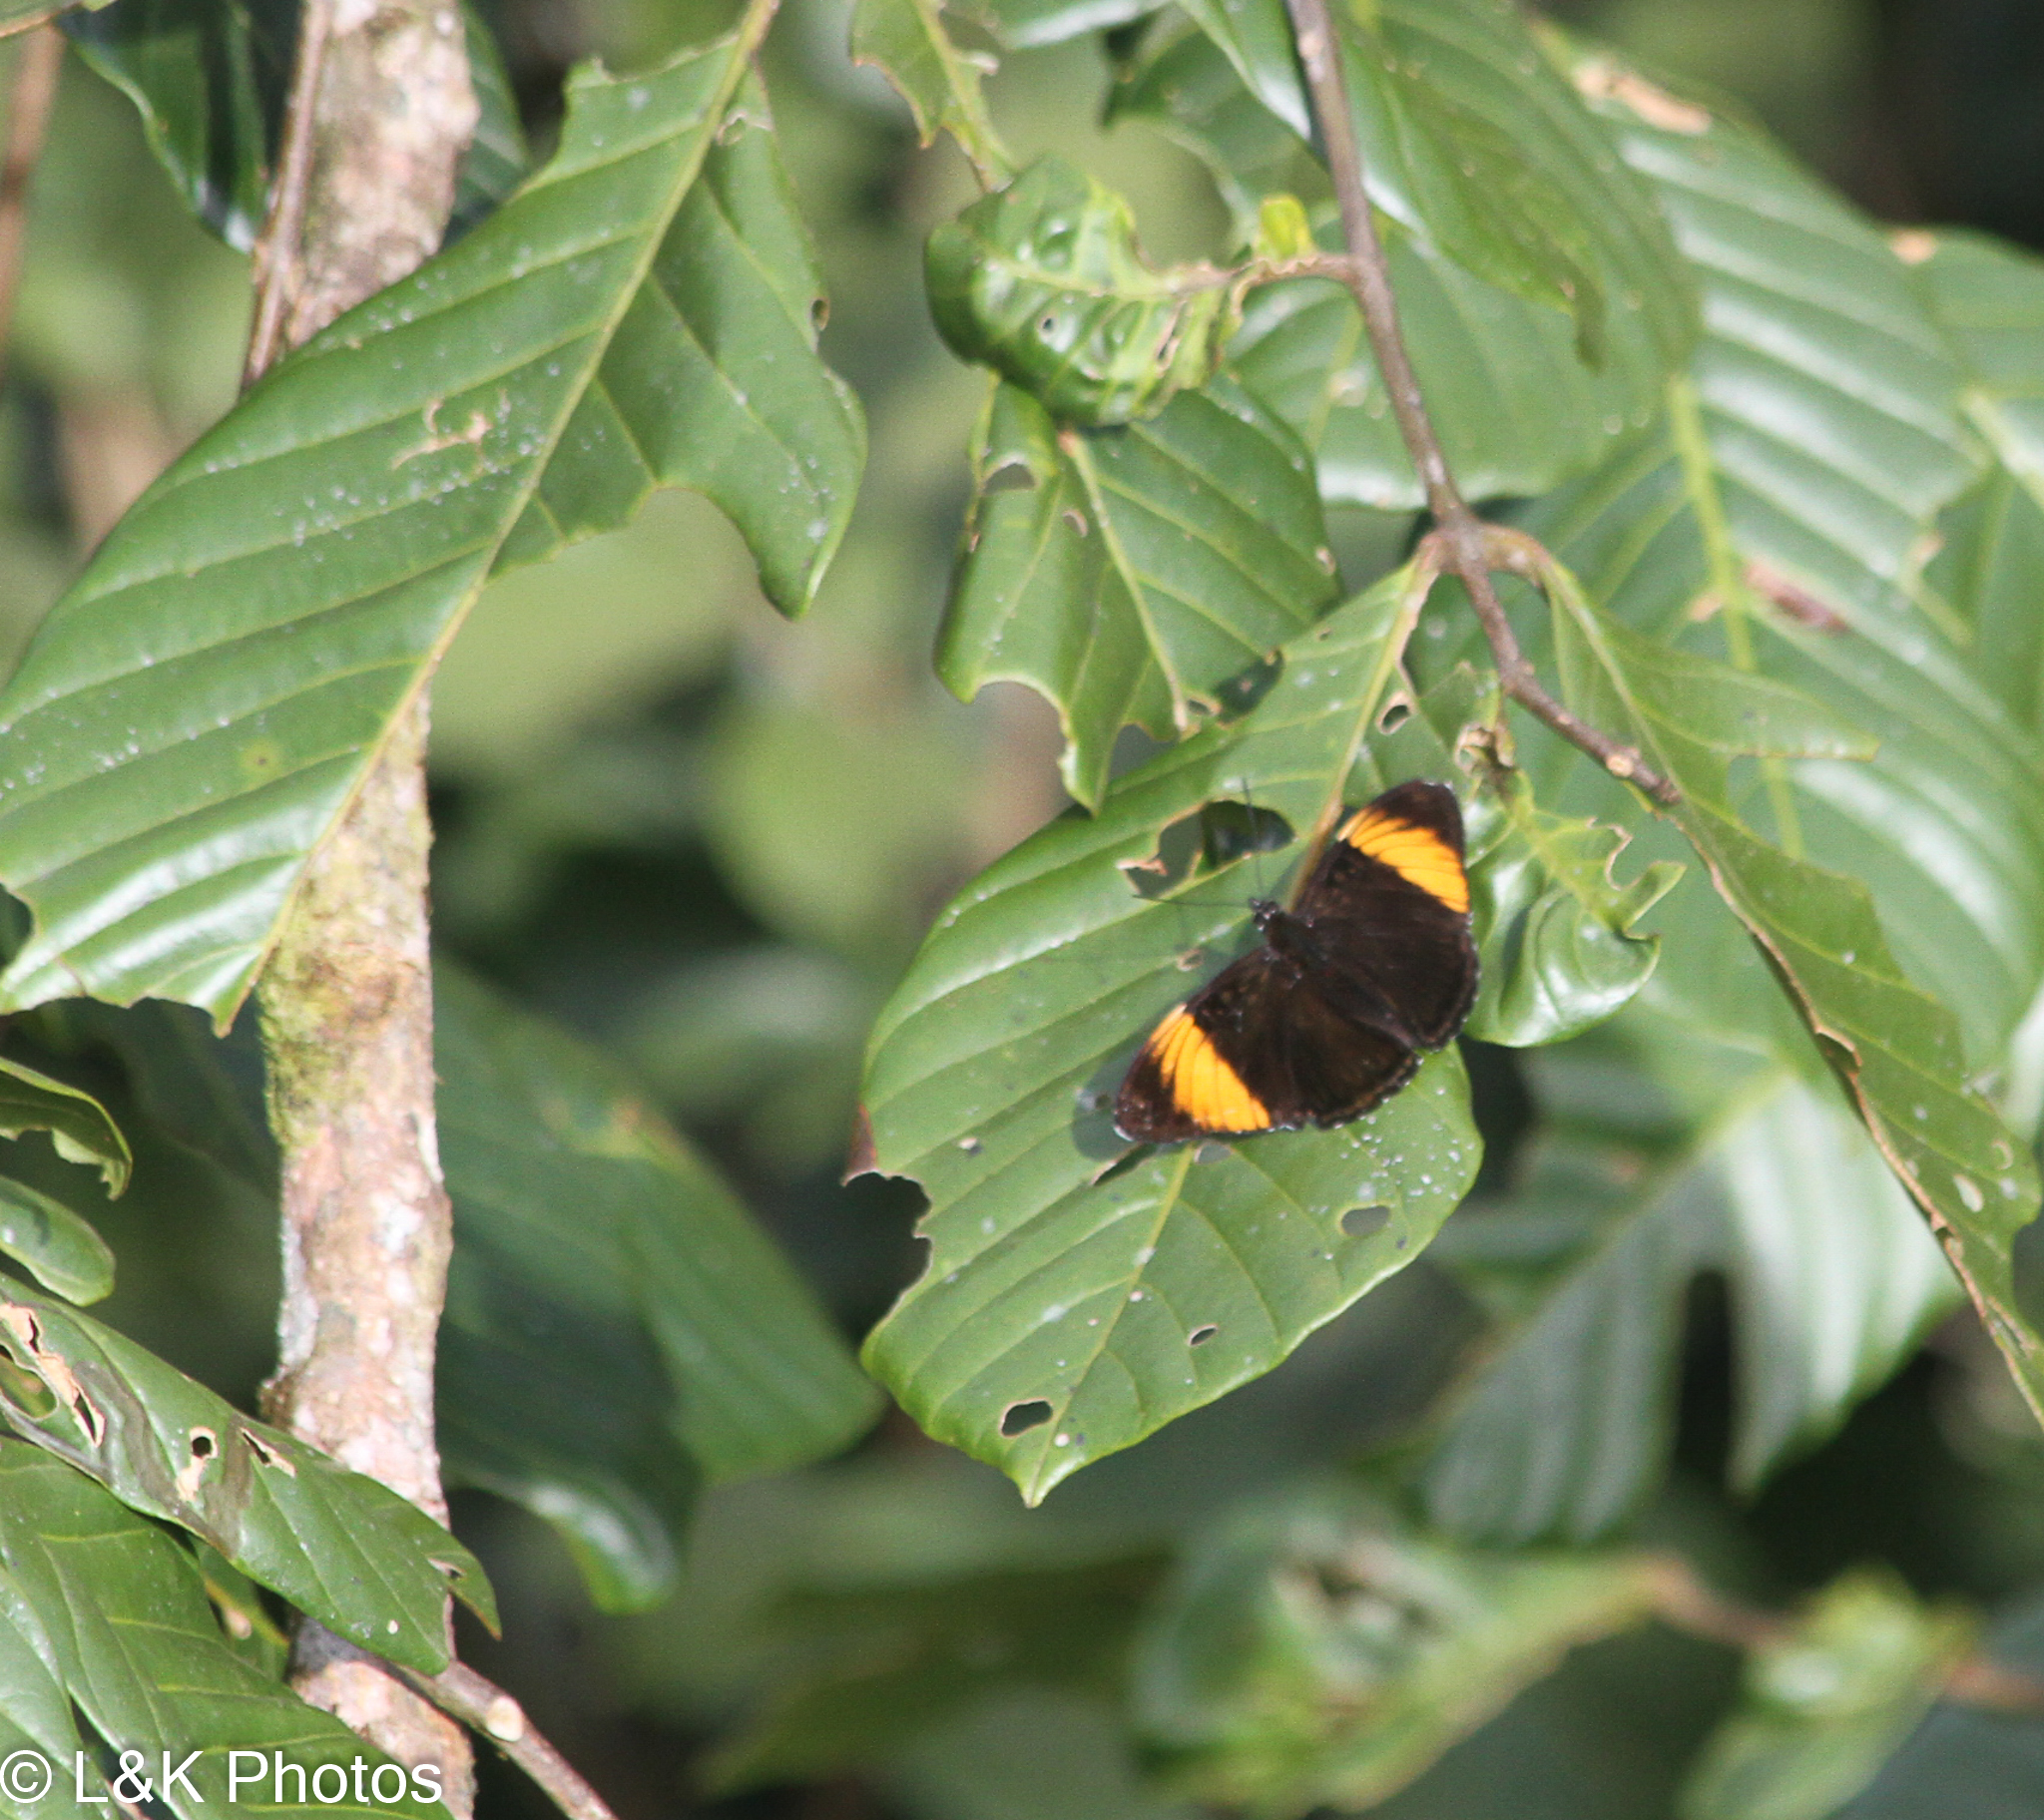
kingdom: Animalia
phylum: Arthropoda
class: Insecta
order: Lepidoptera
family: Nymphalidae
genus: Limenitis
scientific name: Limenitis melanthe
